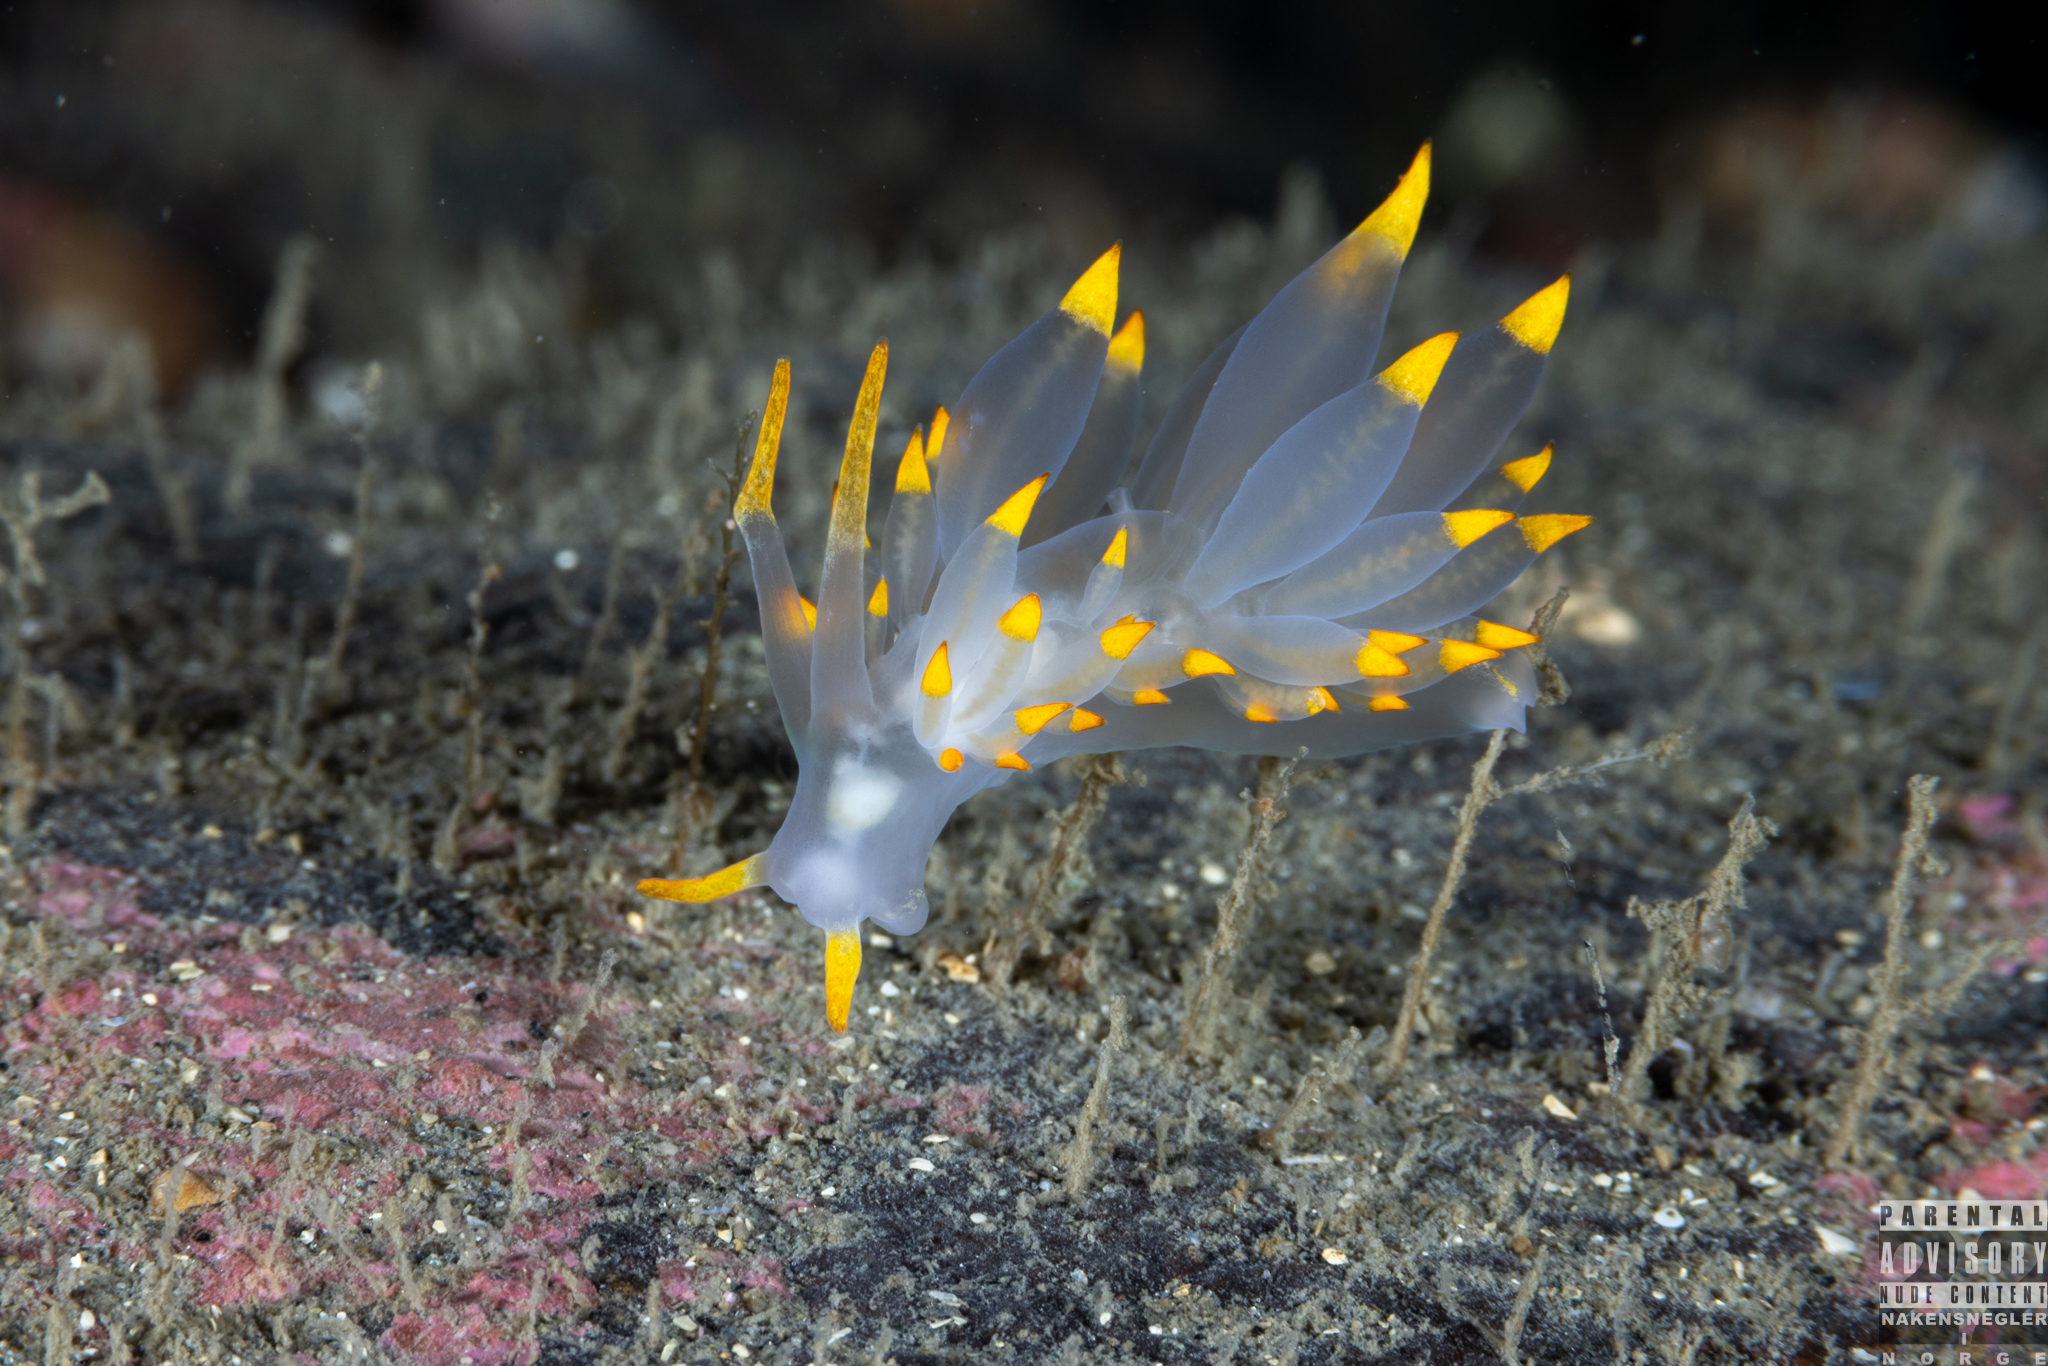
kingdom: Animalia
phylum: Mollusca
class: Gastropoda
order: Nudibranchia
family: Eubranchidae
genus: Amphorina
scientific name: Amphorina farrani
